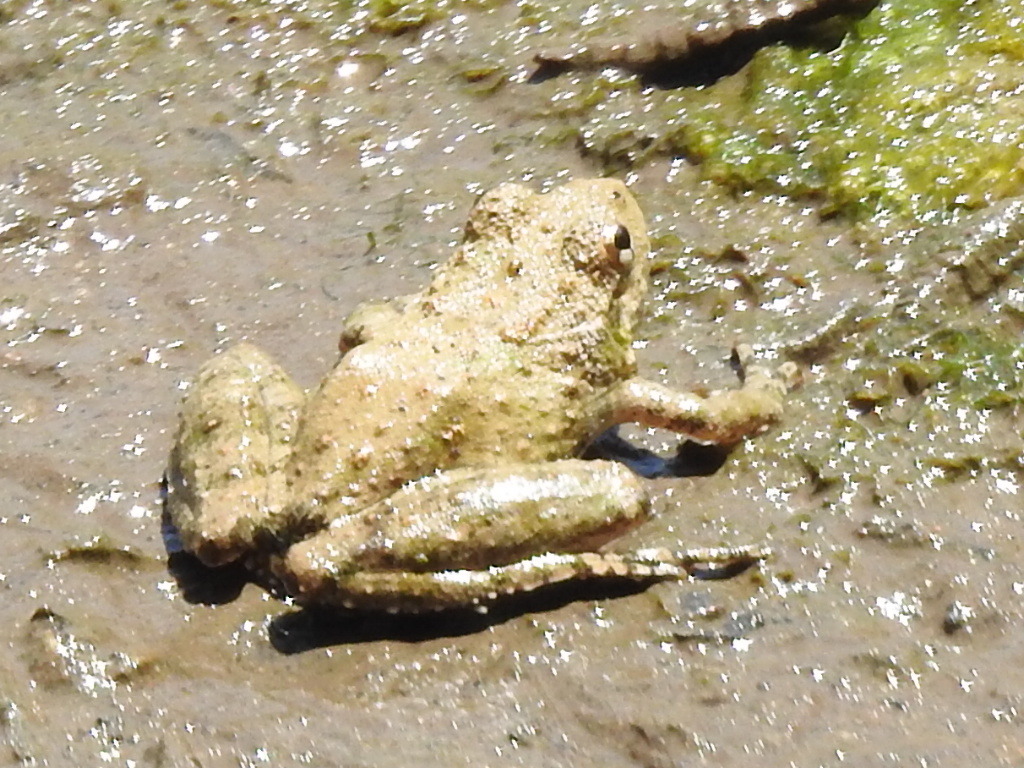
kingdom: Animalia
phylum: Chordata
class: Amphibia
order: Anura
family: Hylidae
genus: Acris
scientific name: Acris blanchardi
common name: Blanchard's cricket frog
